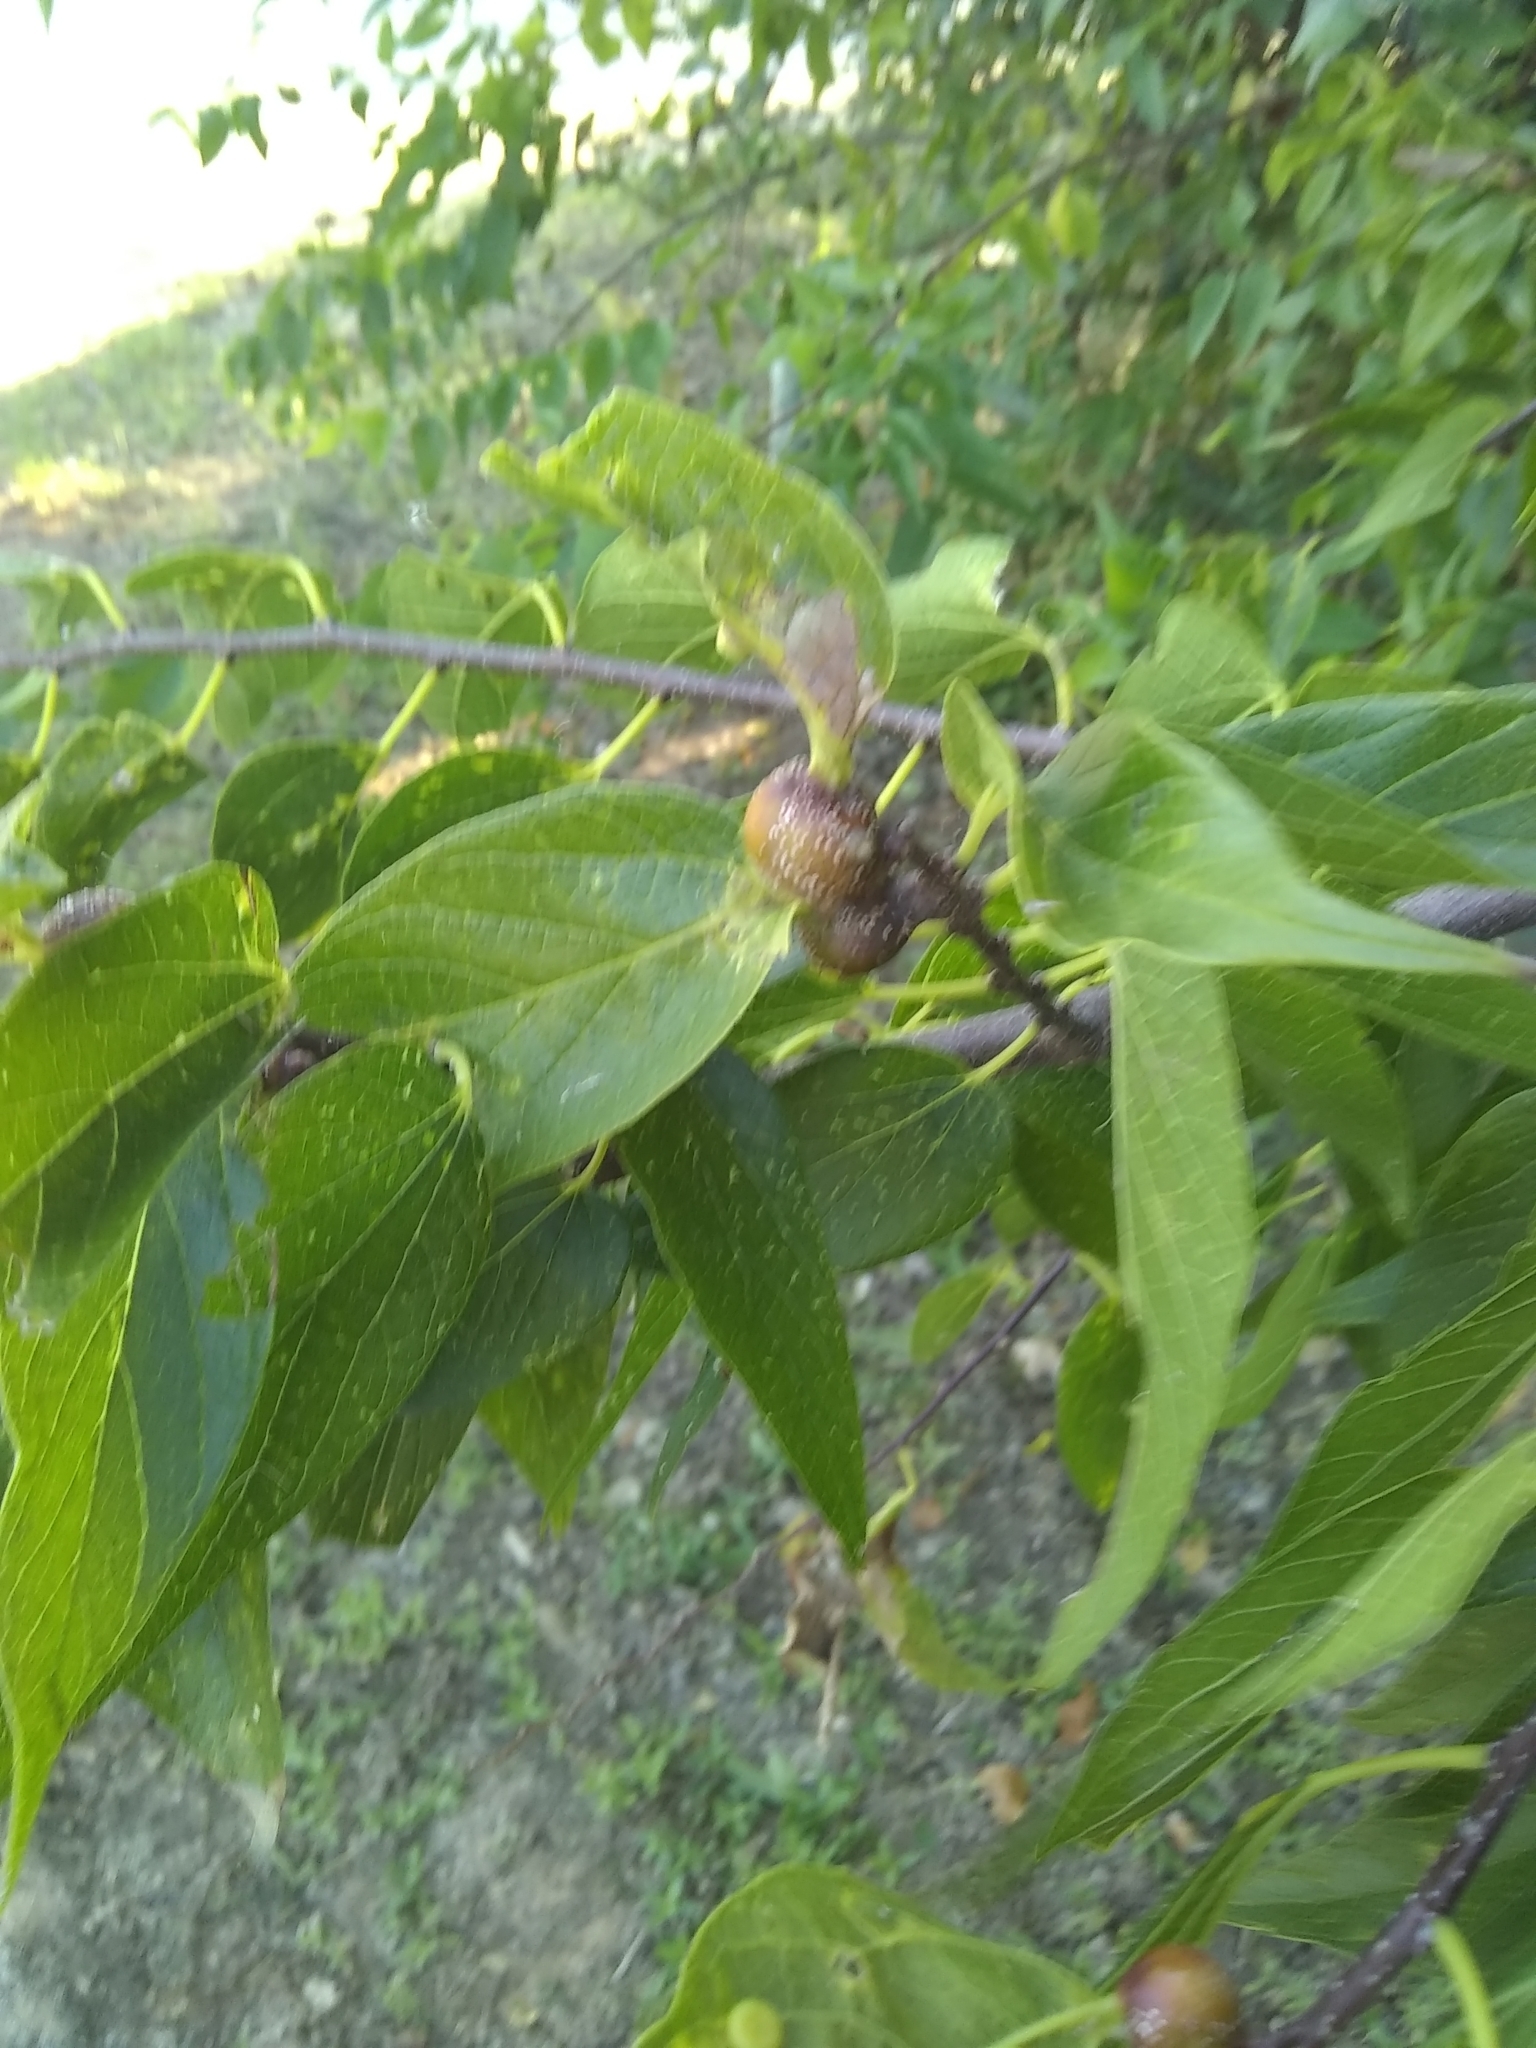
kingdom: Animalia
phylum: Arthropoda
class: Insecta
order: Hemiptera
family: Aphalaridae
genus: Pachypsylla
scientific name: Pachypsylla venusta
